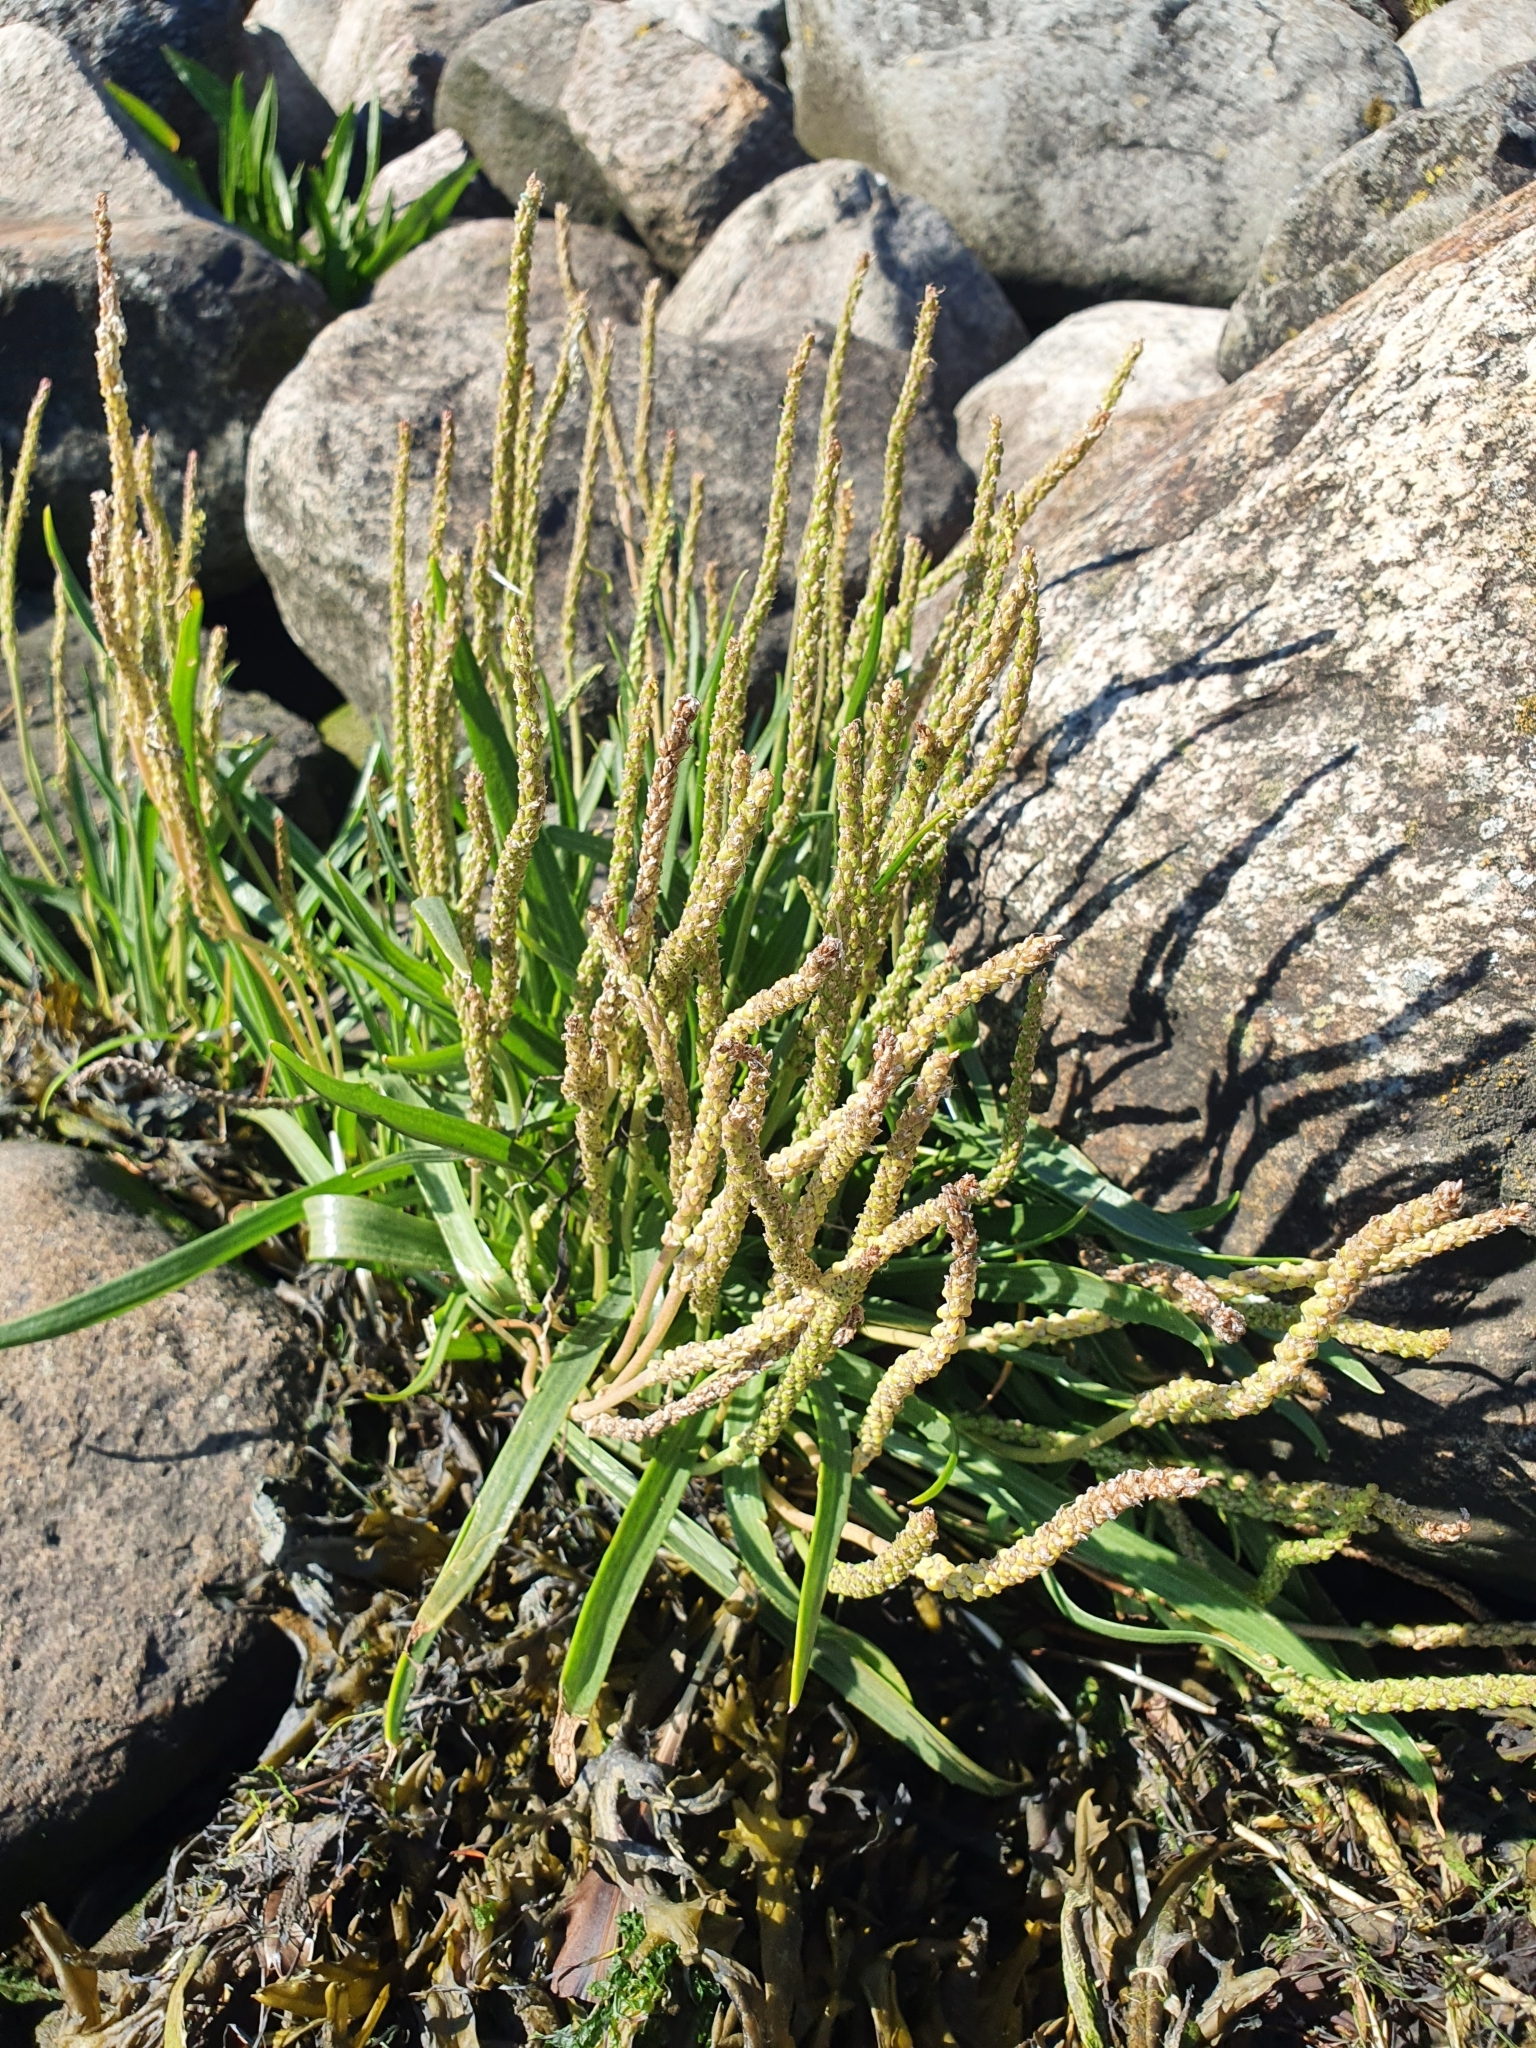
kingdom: Plantae
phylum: Tracheophyta
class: Magnoliopsida
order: Lamiales
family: Plantaginaceae
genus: Plantago
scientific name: Plantago maritima
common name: Sea plantain
